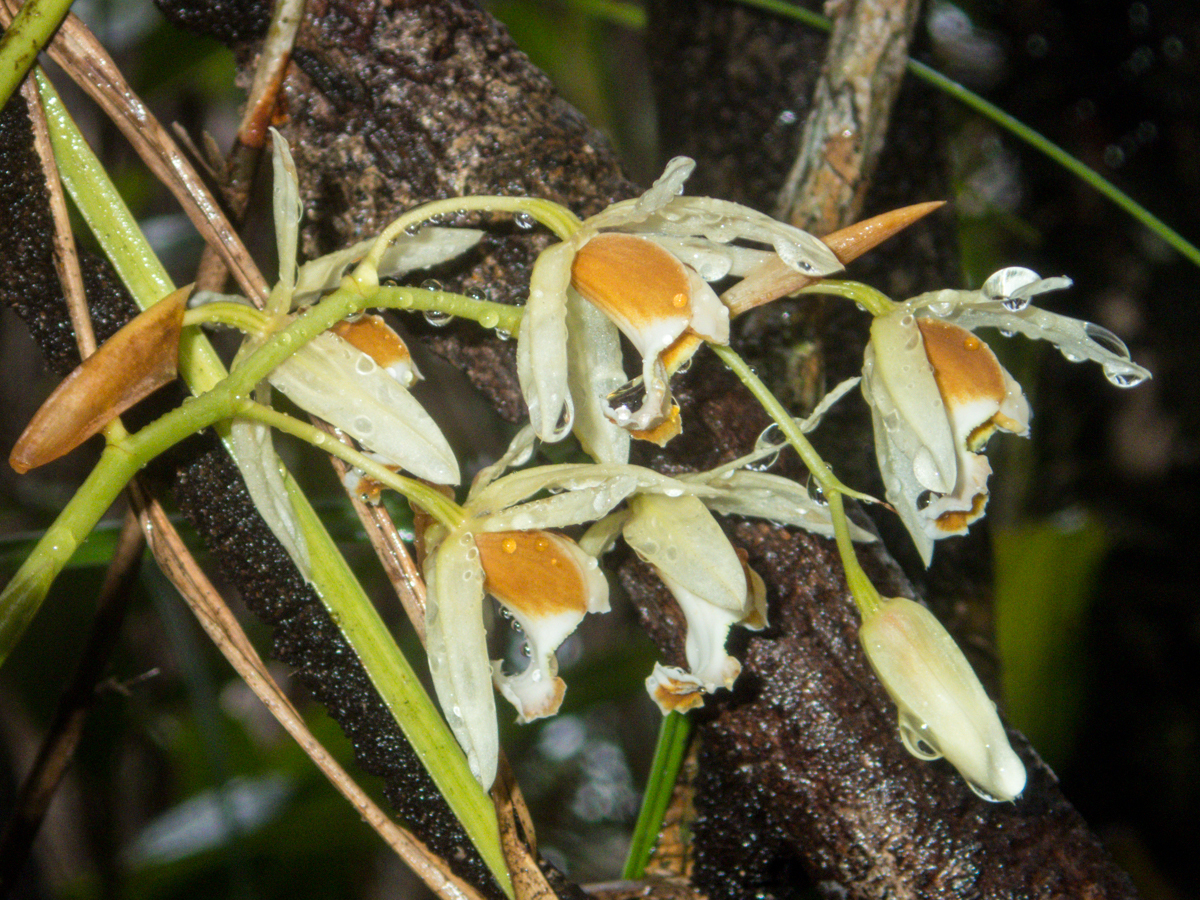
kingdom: Plantae
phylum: Tracheophyta
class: Liliopsida
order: Asparagales
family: Orchidaceae
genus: Coelogyne
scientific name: Coelogyne trinervis
